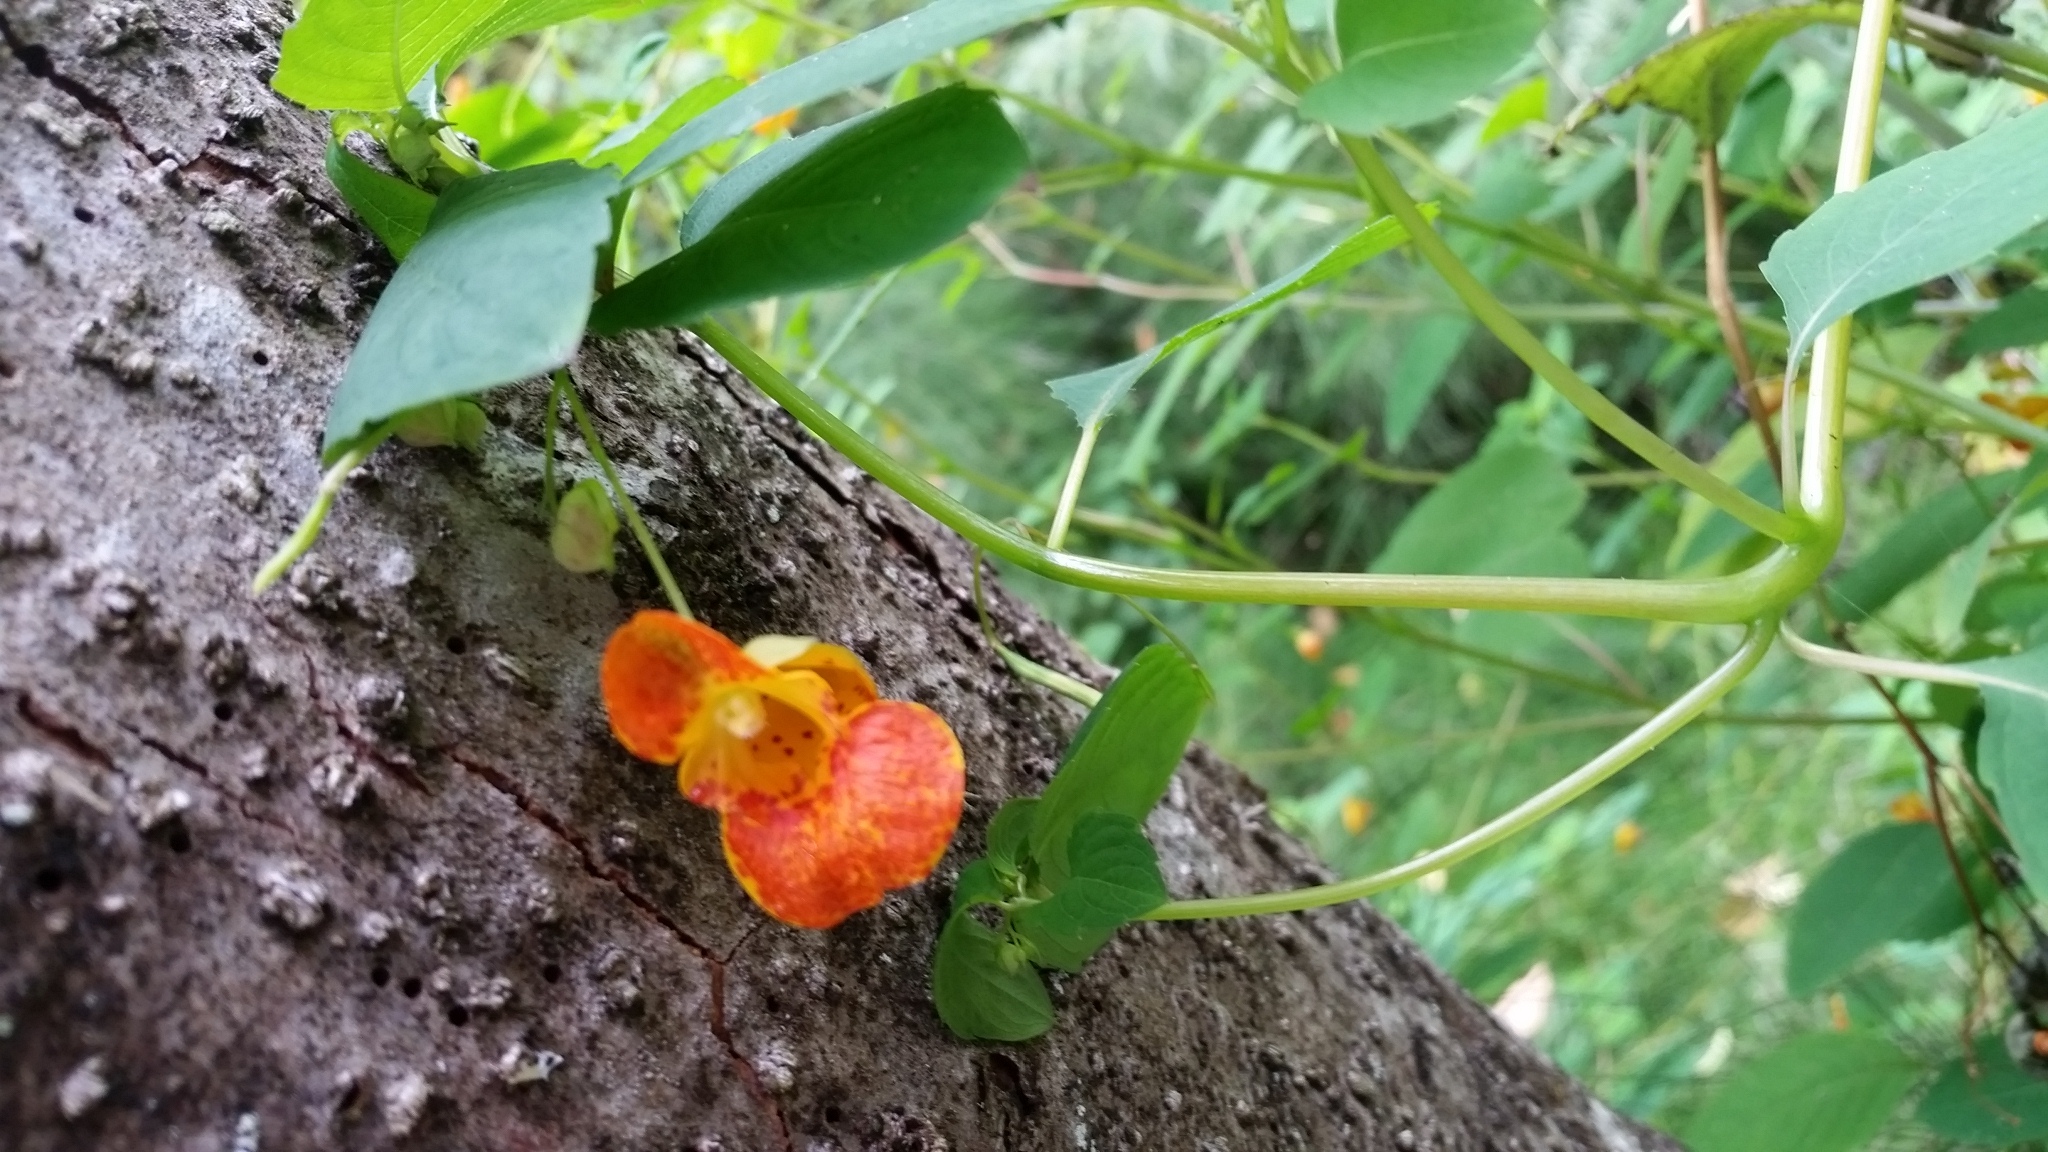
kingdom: Plantae
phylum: Tracheophyta
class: Magnoliopsida
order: Ericales
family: Balsaminaceae
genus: Impatiens
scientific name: Impatiens capensis
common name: Orange balsam
